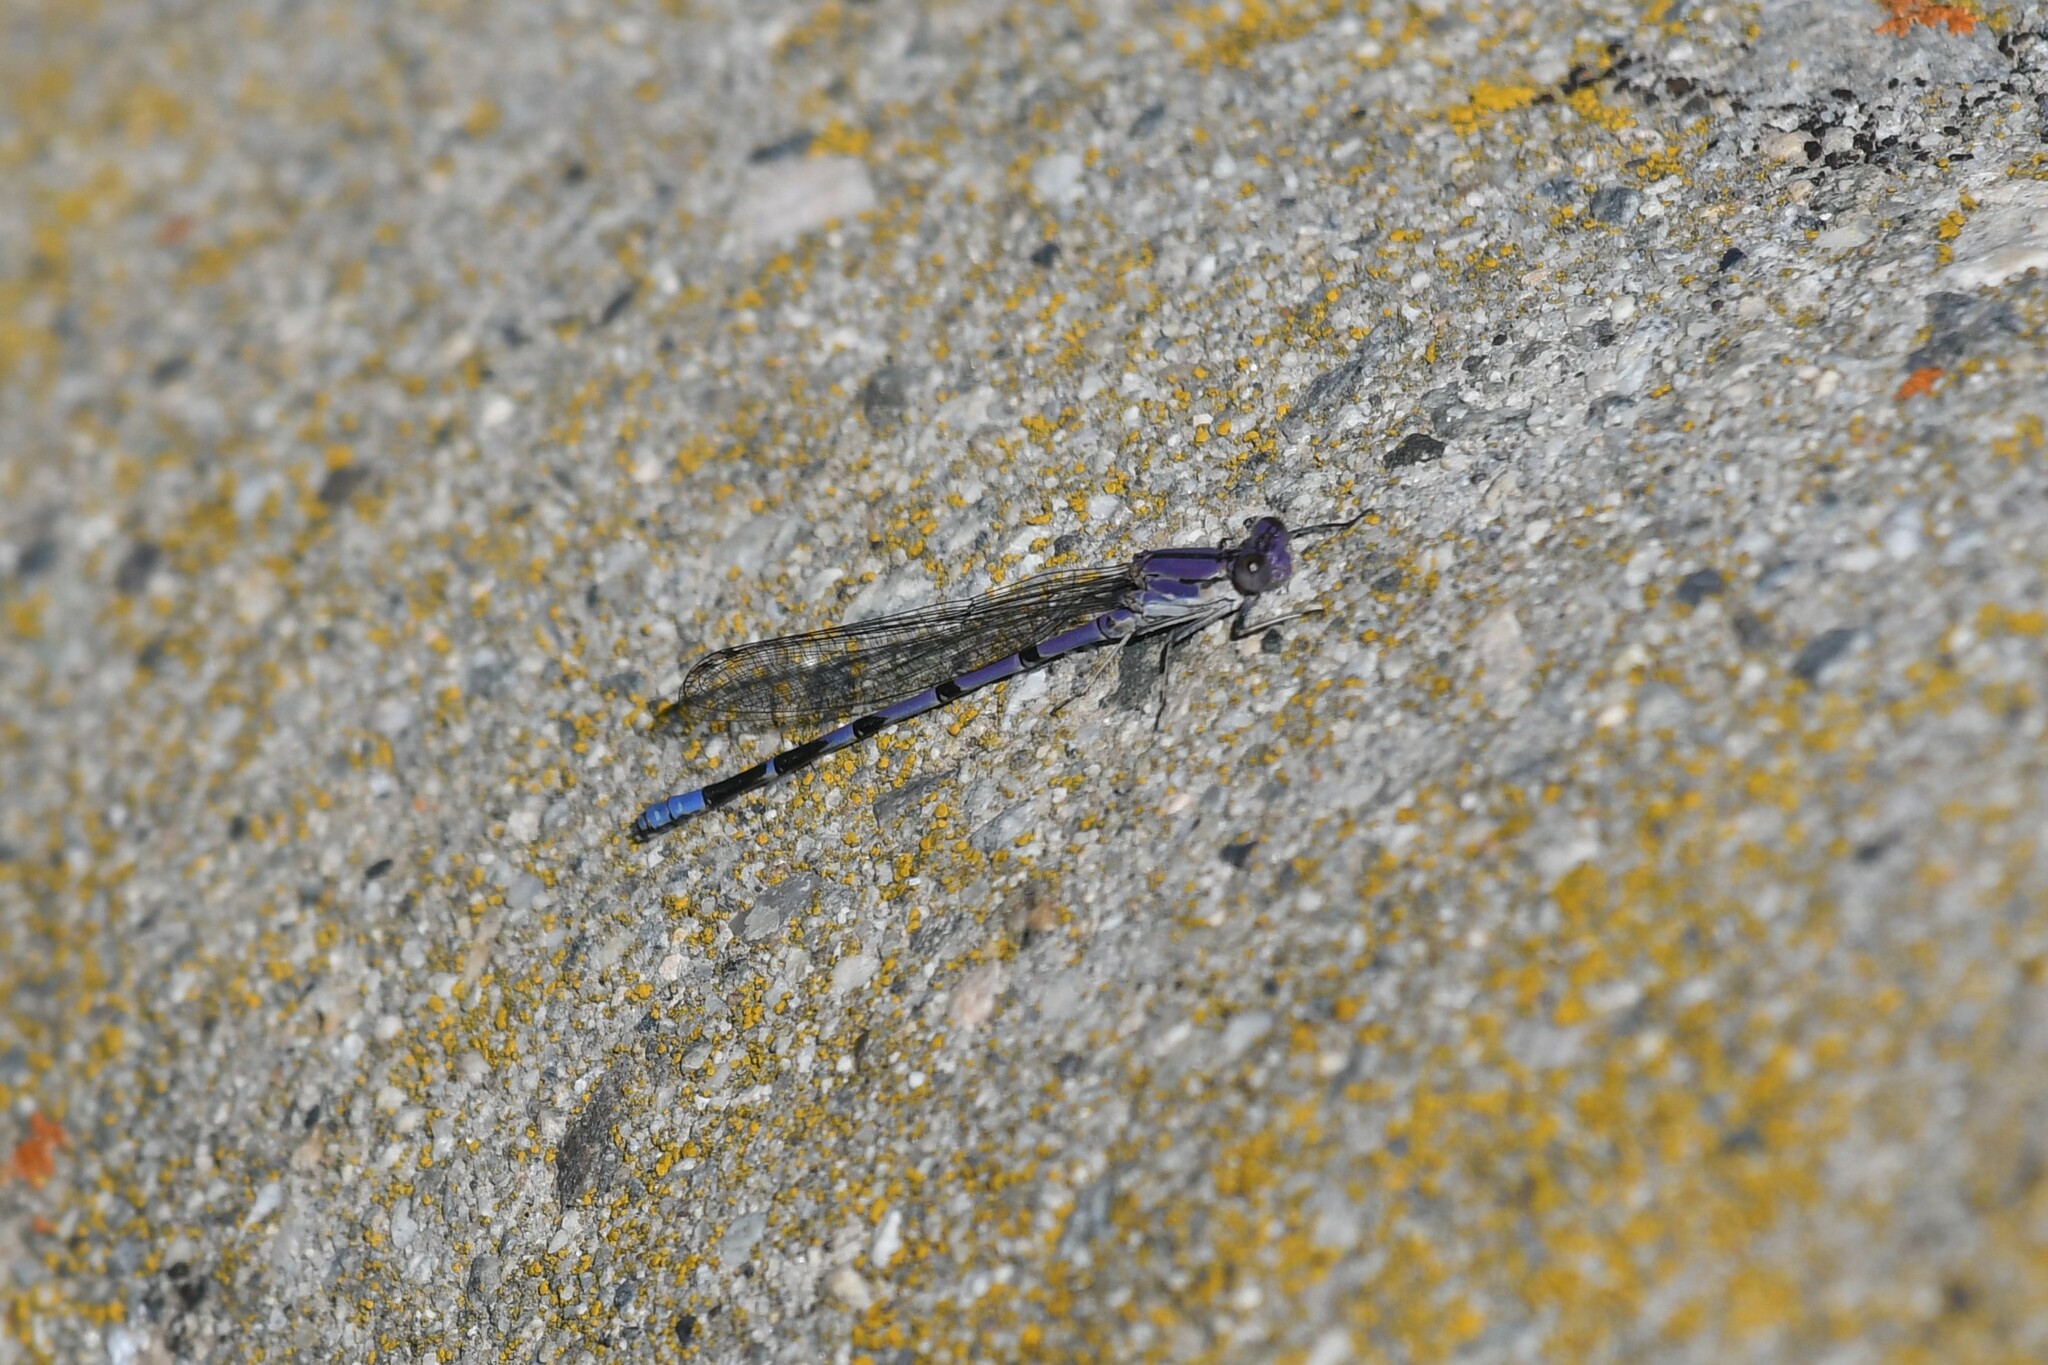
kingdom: Animalia
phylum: Arthropoda
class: Insecta
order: Odonata
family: Coenagrionidae
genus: Argia
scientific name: Argia emma
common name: Emma's dancer
